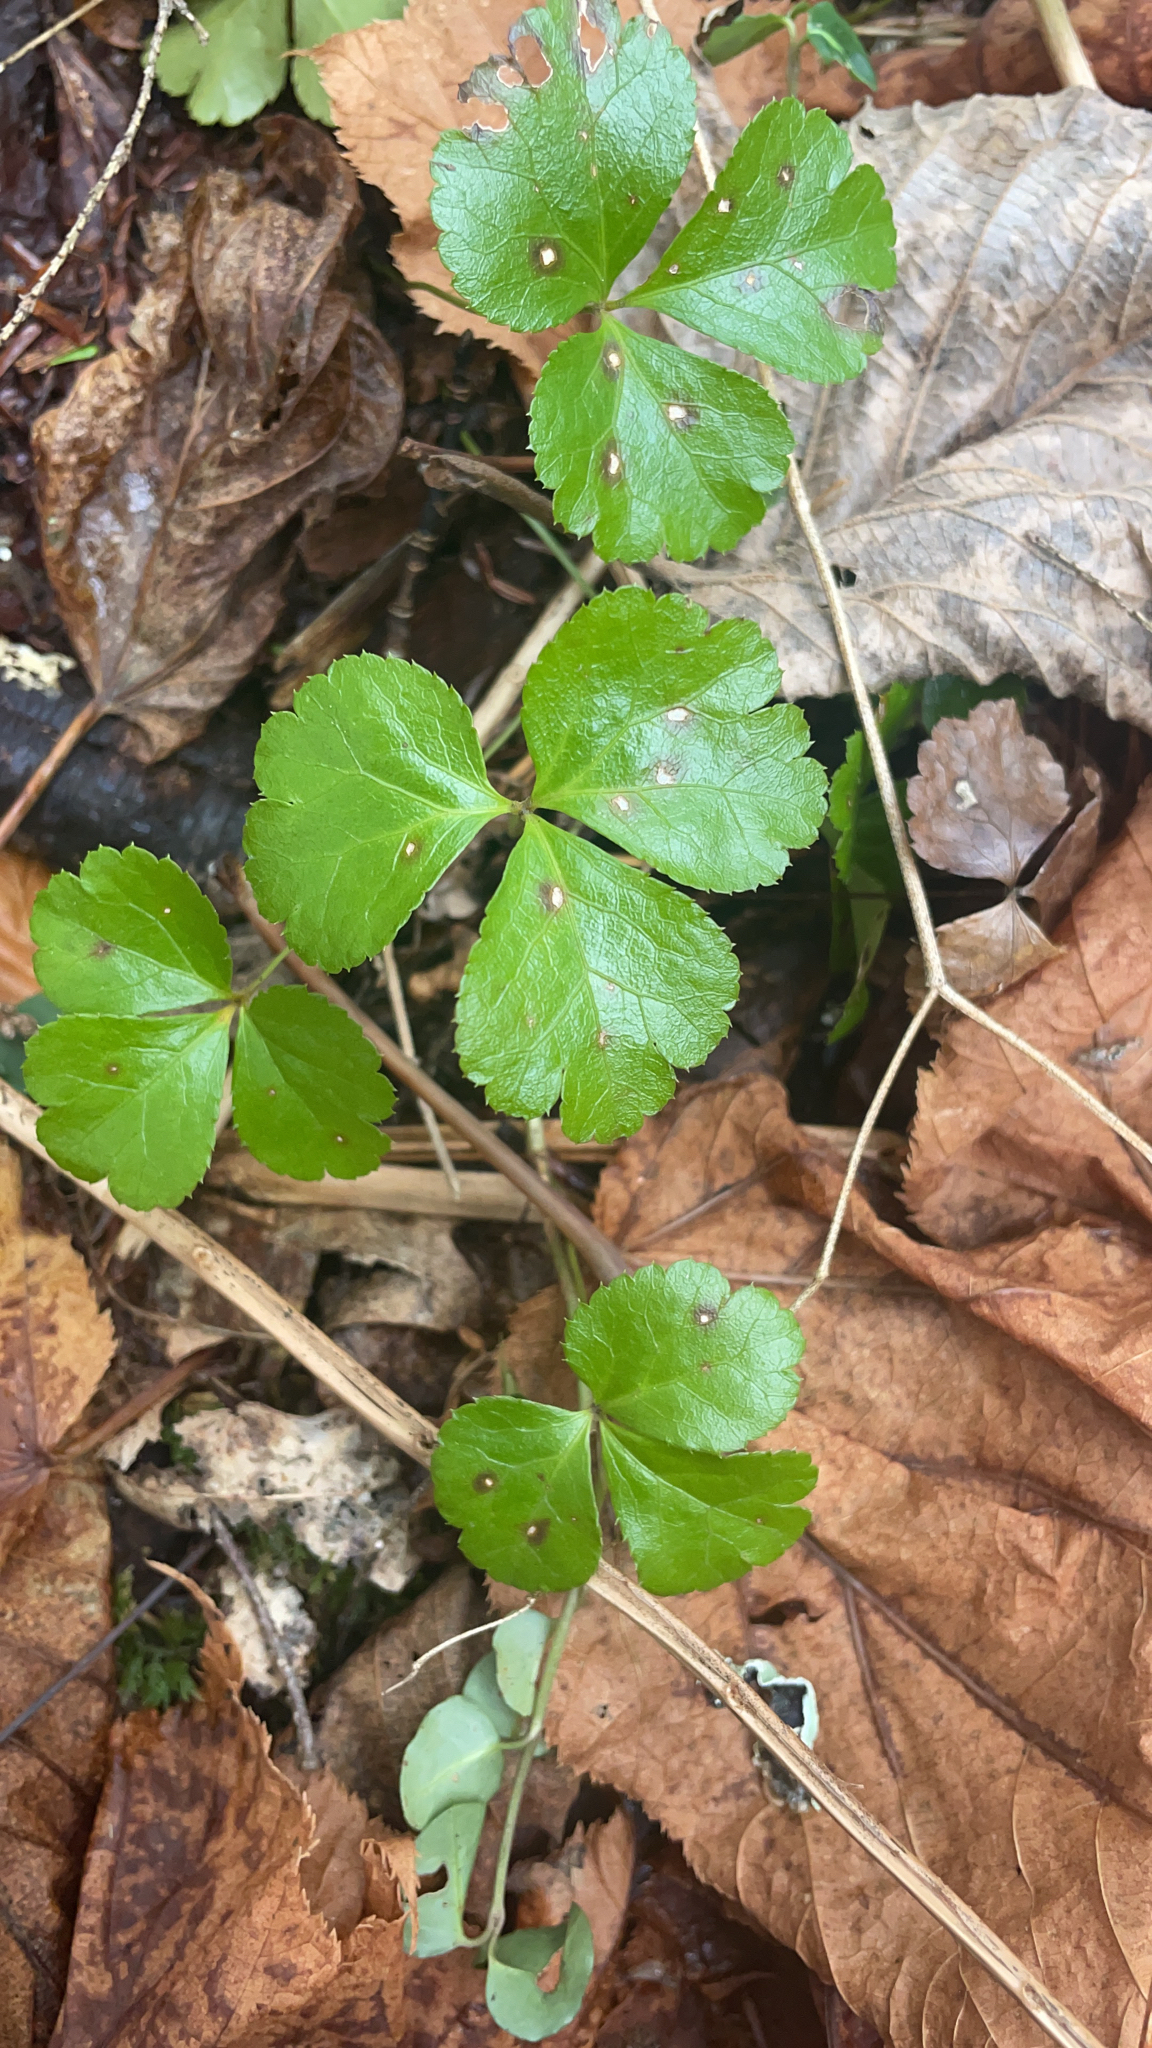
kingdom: Plantae
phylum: Tracheophyta
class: Magnoliopsida
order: Ranunculales
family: Ranunculaceae
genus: Coptis
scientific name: Coptis trifolia
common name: Canker-root
